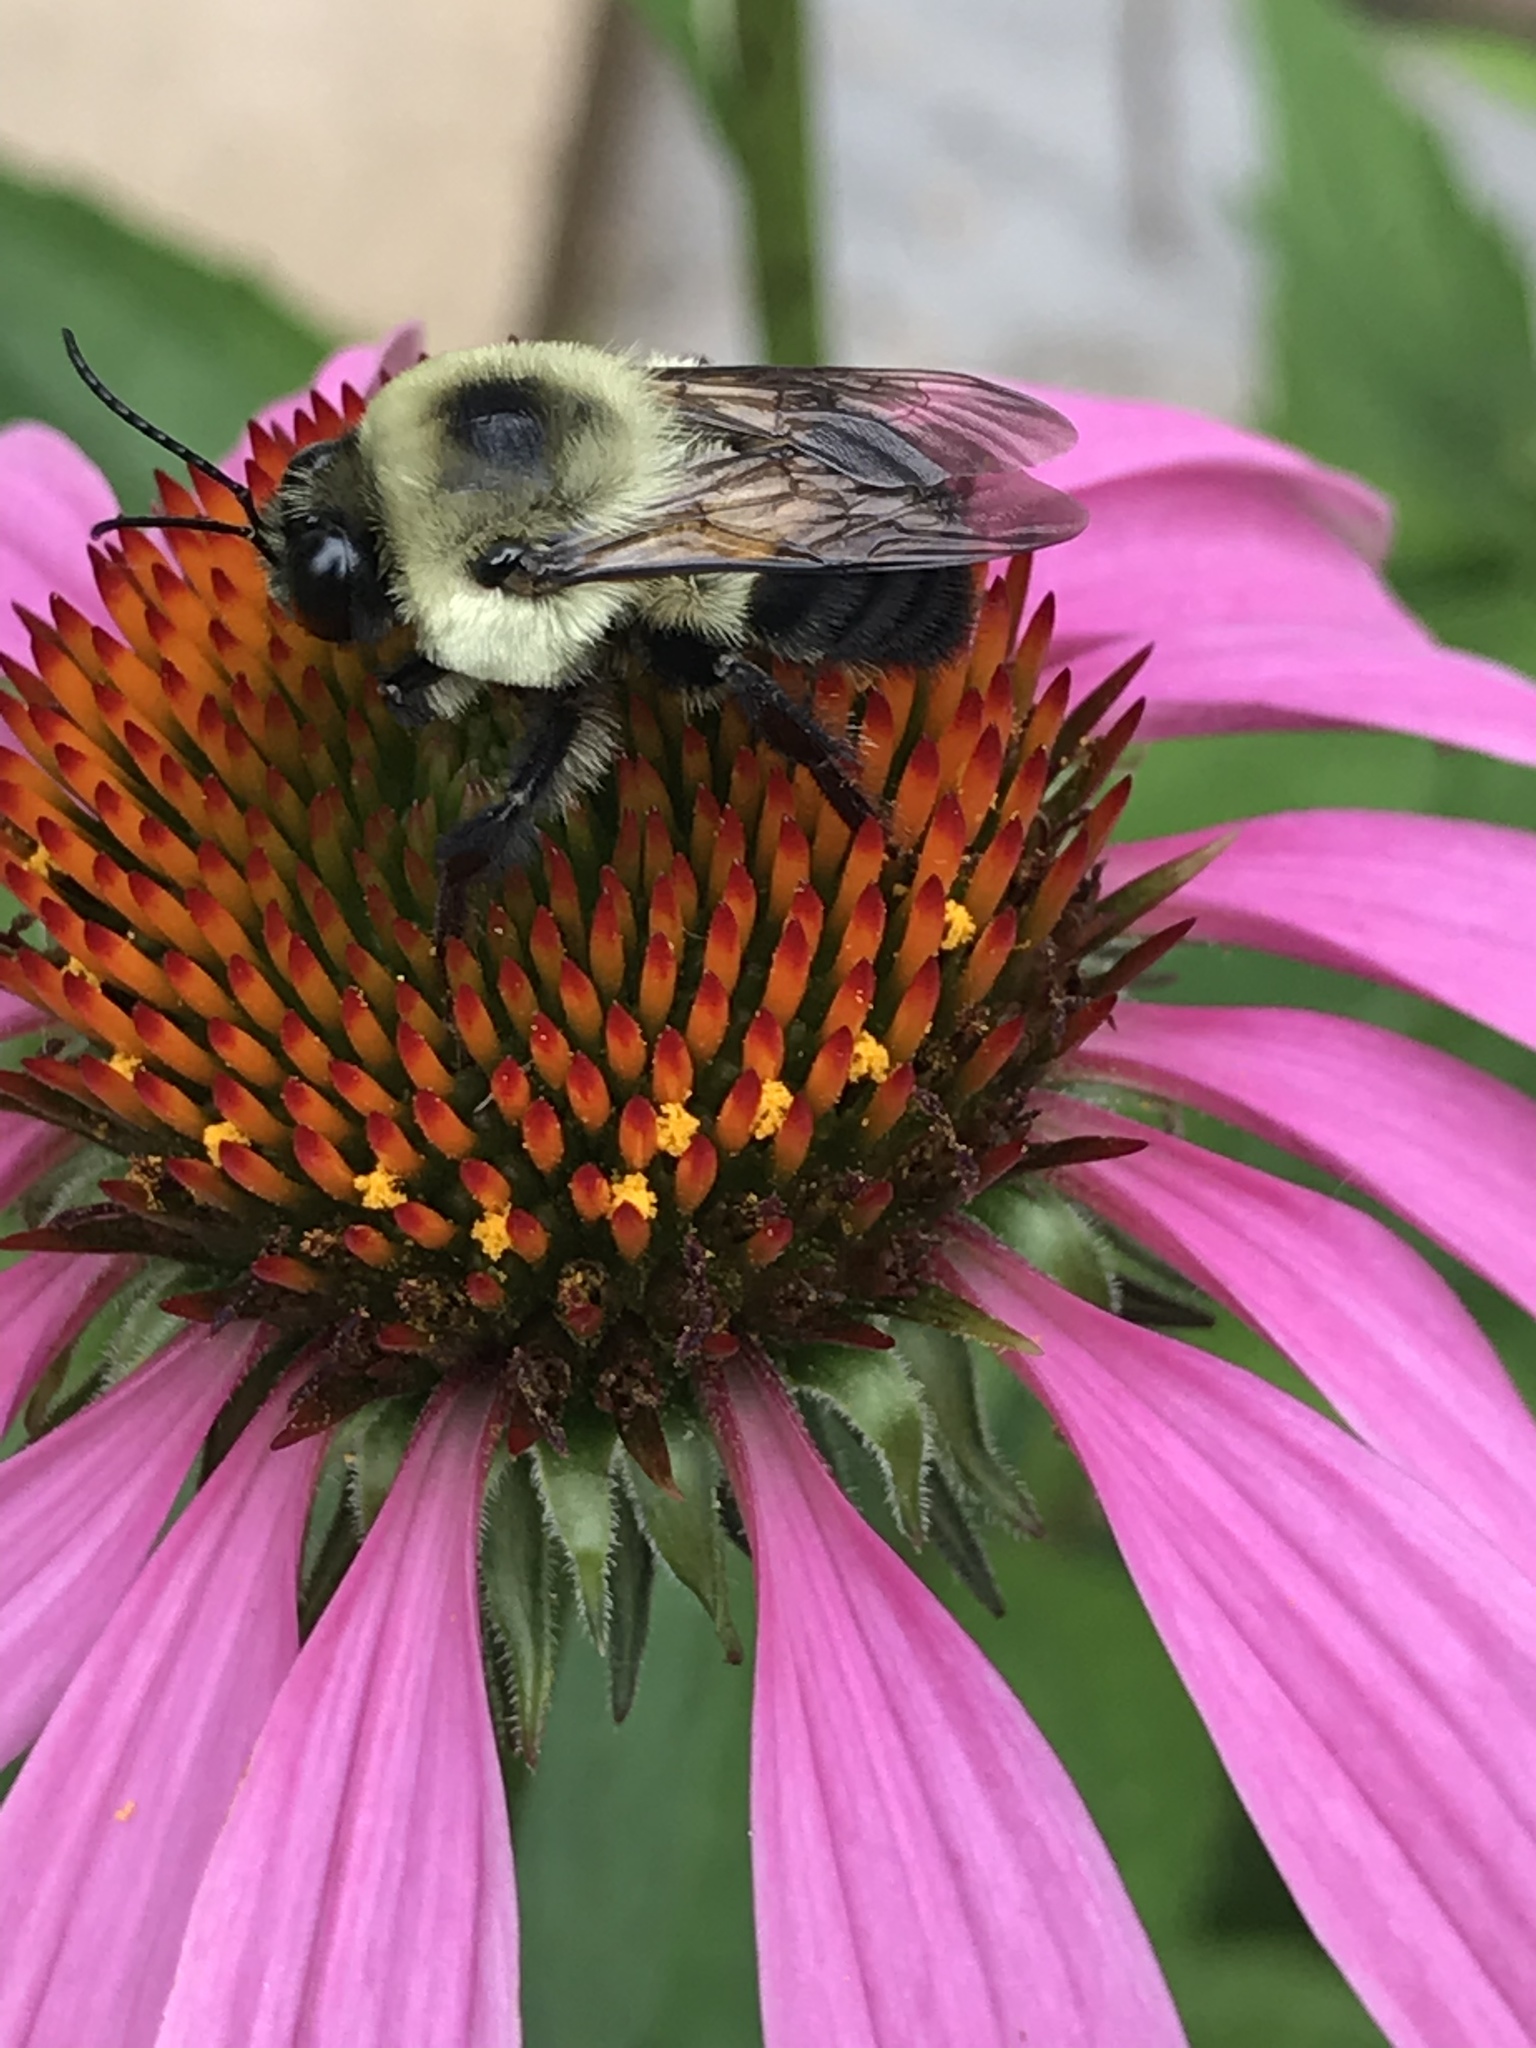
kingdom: Animalia
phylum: Arthropoda
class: Insecta
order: Hymenoptera
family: Apidae
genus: Bombus
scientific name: Bombus
